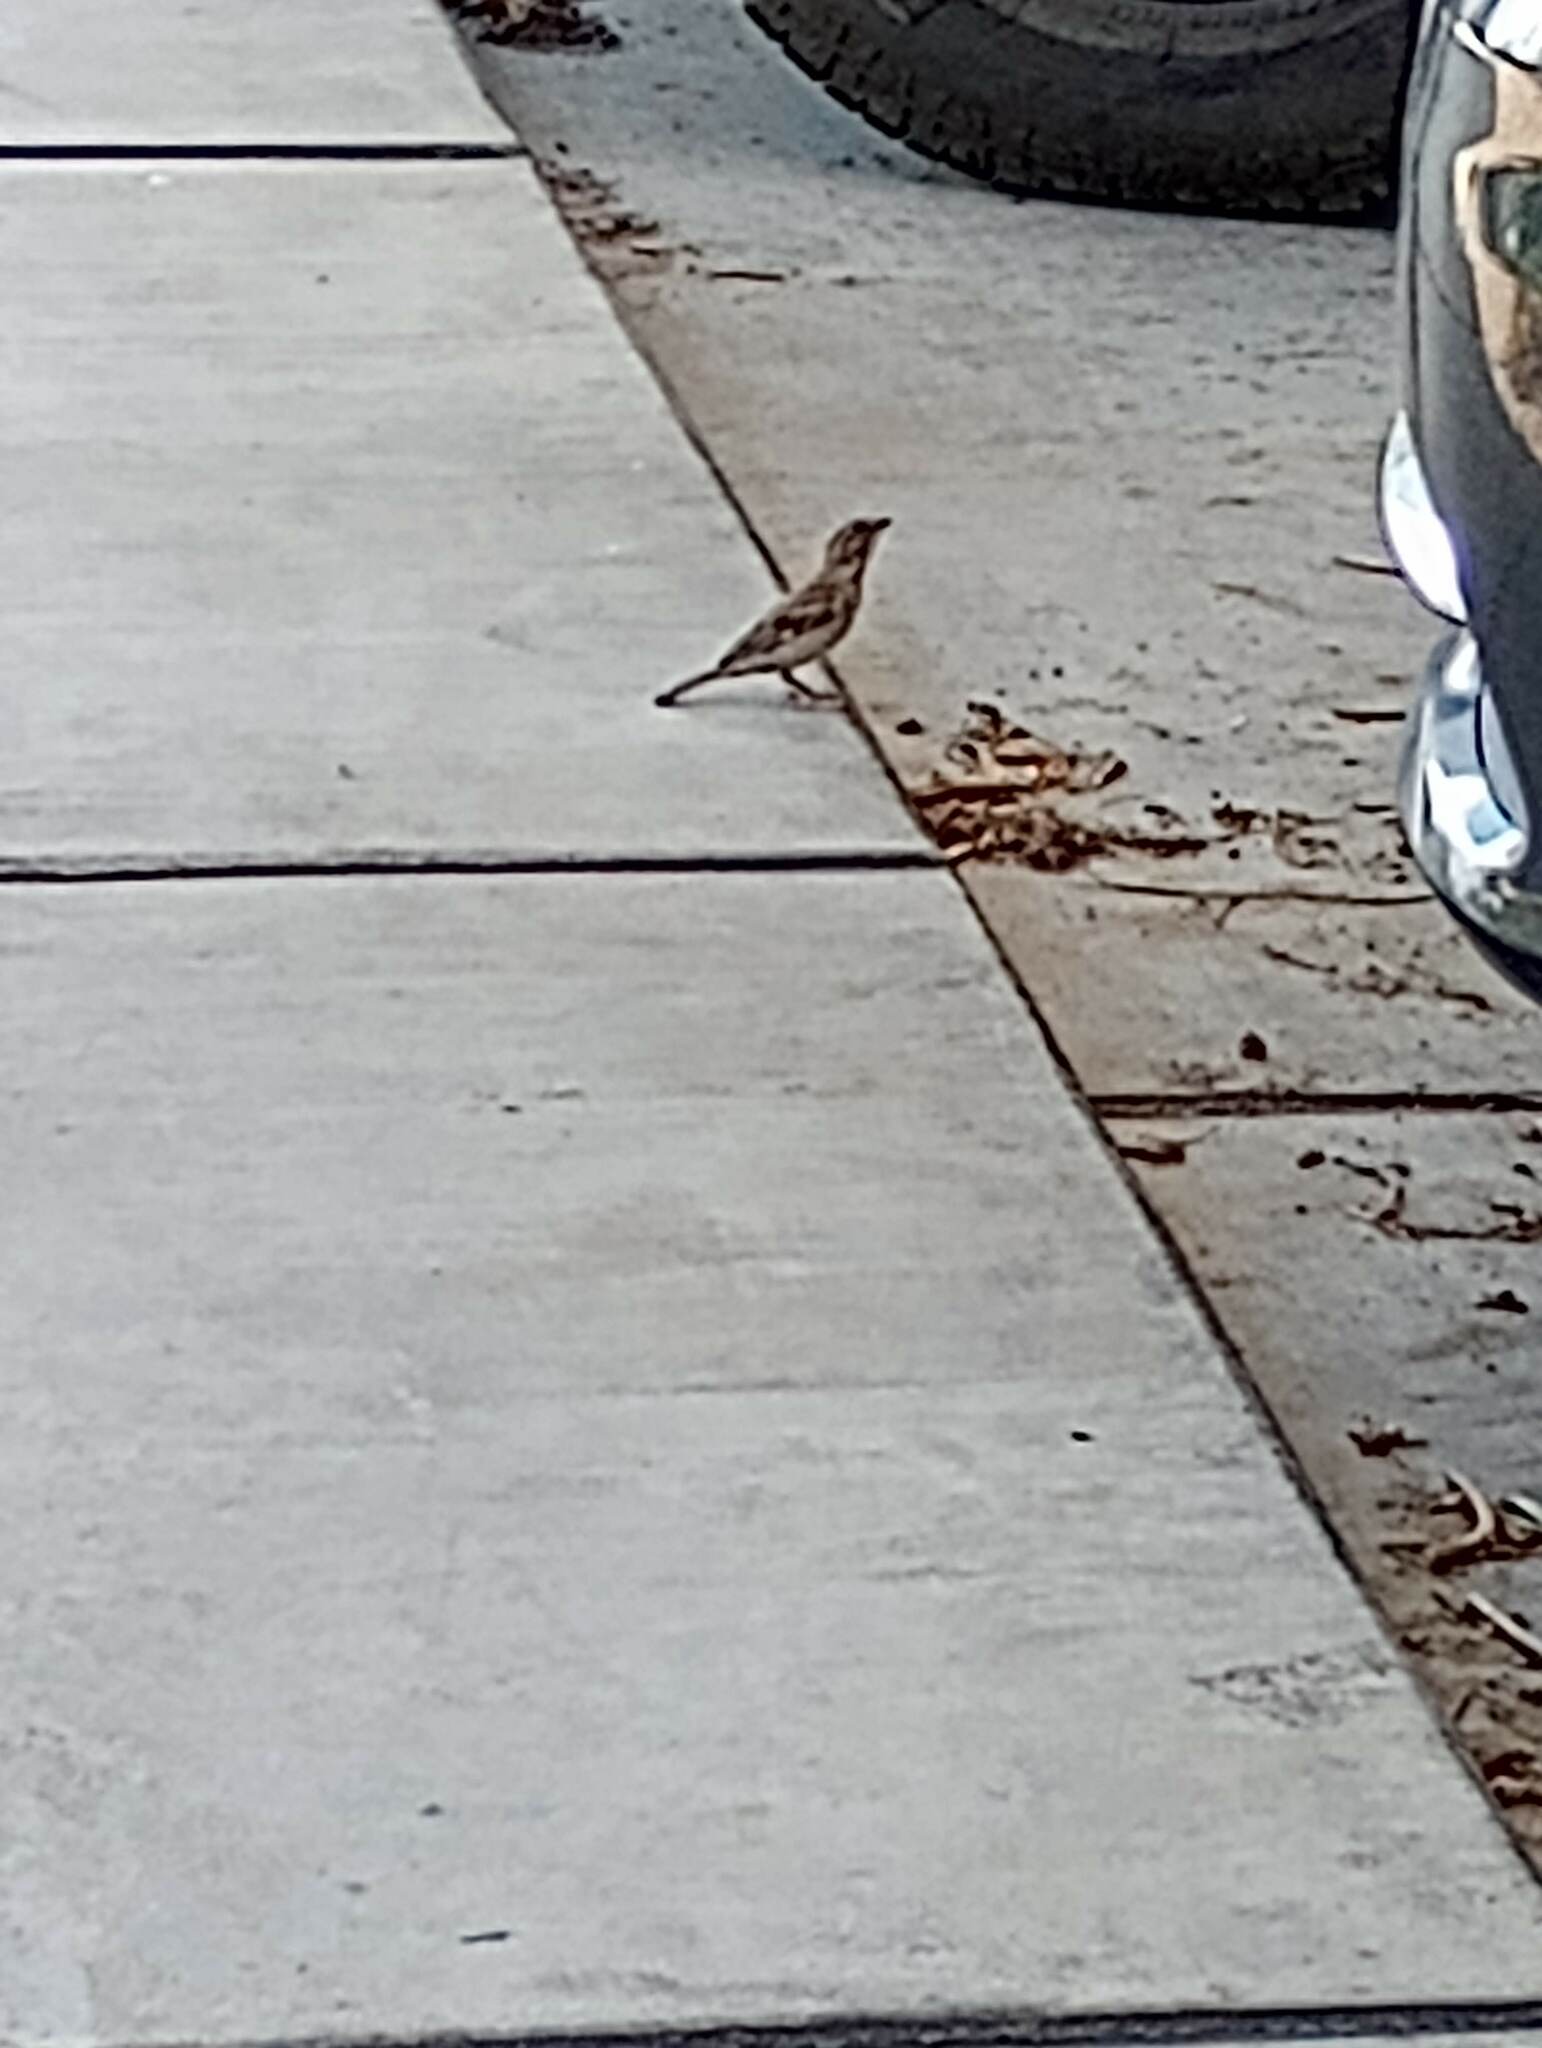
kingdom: Animalia
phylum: Chordata
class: Aves
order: Passeriformes
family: Passeridae
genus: Passer
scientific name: Passer domesticus
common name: House sparrow
